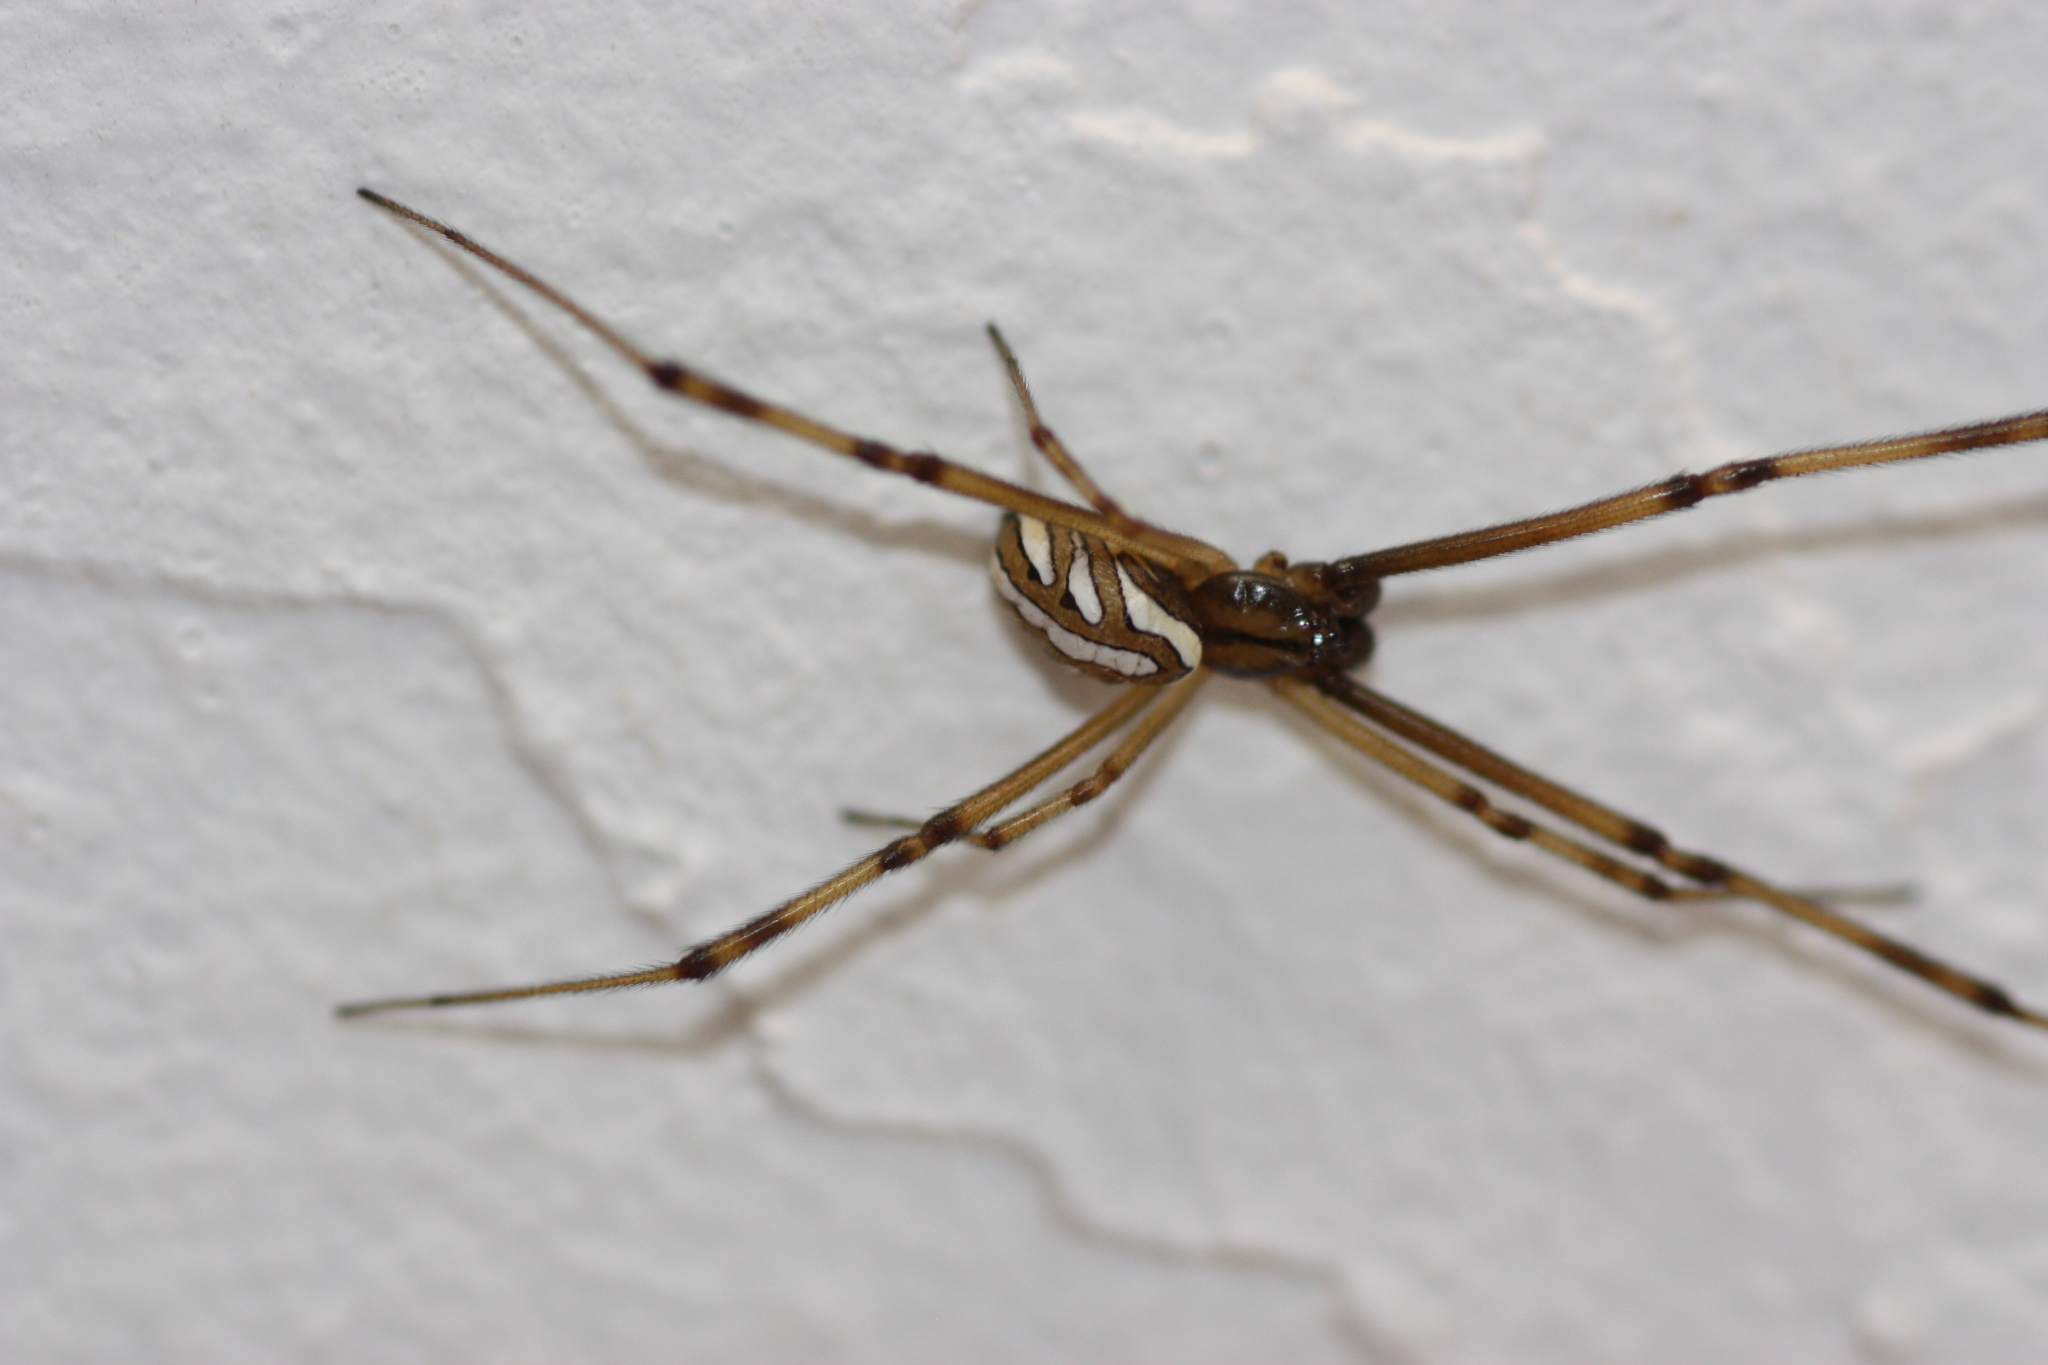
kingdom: Animalia
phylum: Arthropoda
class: Arachnida
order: Araneae
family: Theridiidae
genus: Latrodectus
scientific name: Latrodectus hesperus
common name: Western black widow
